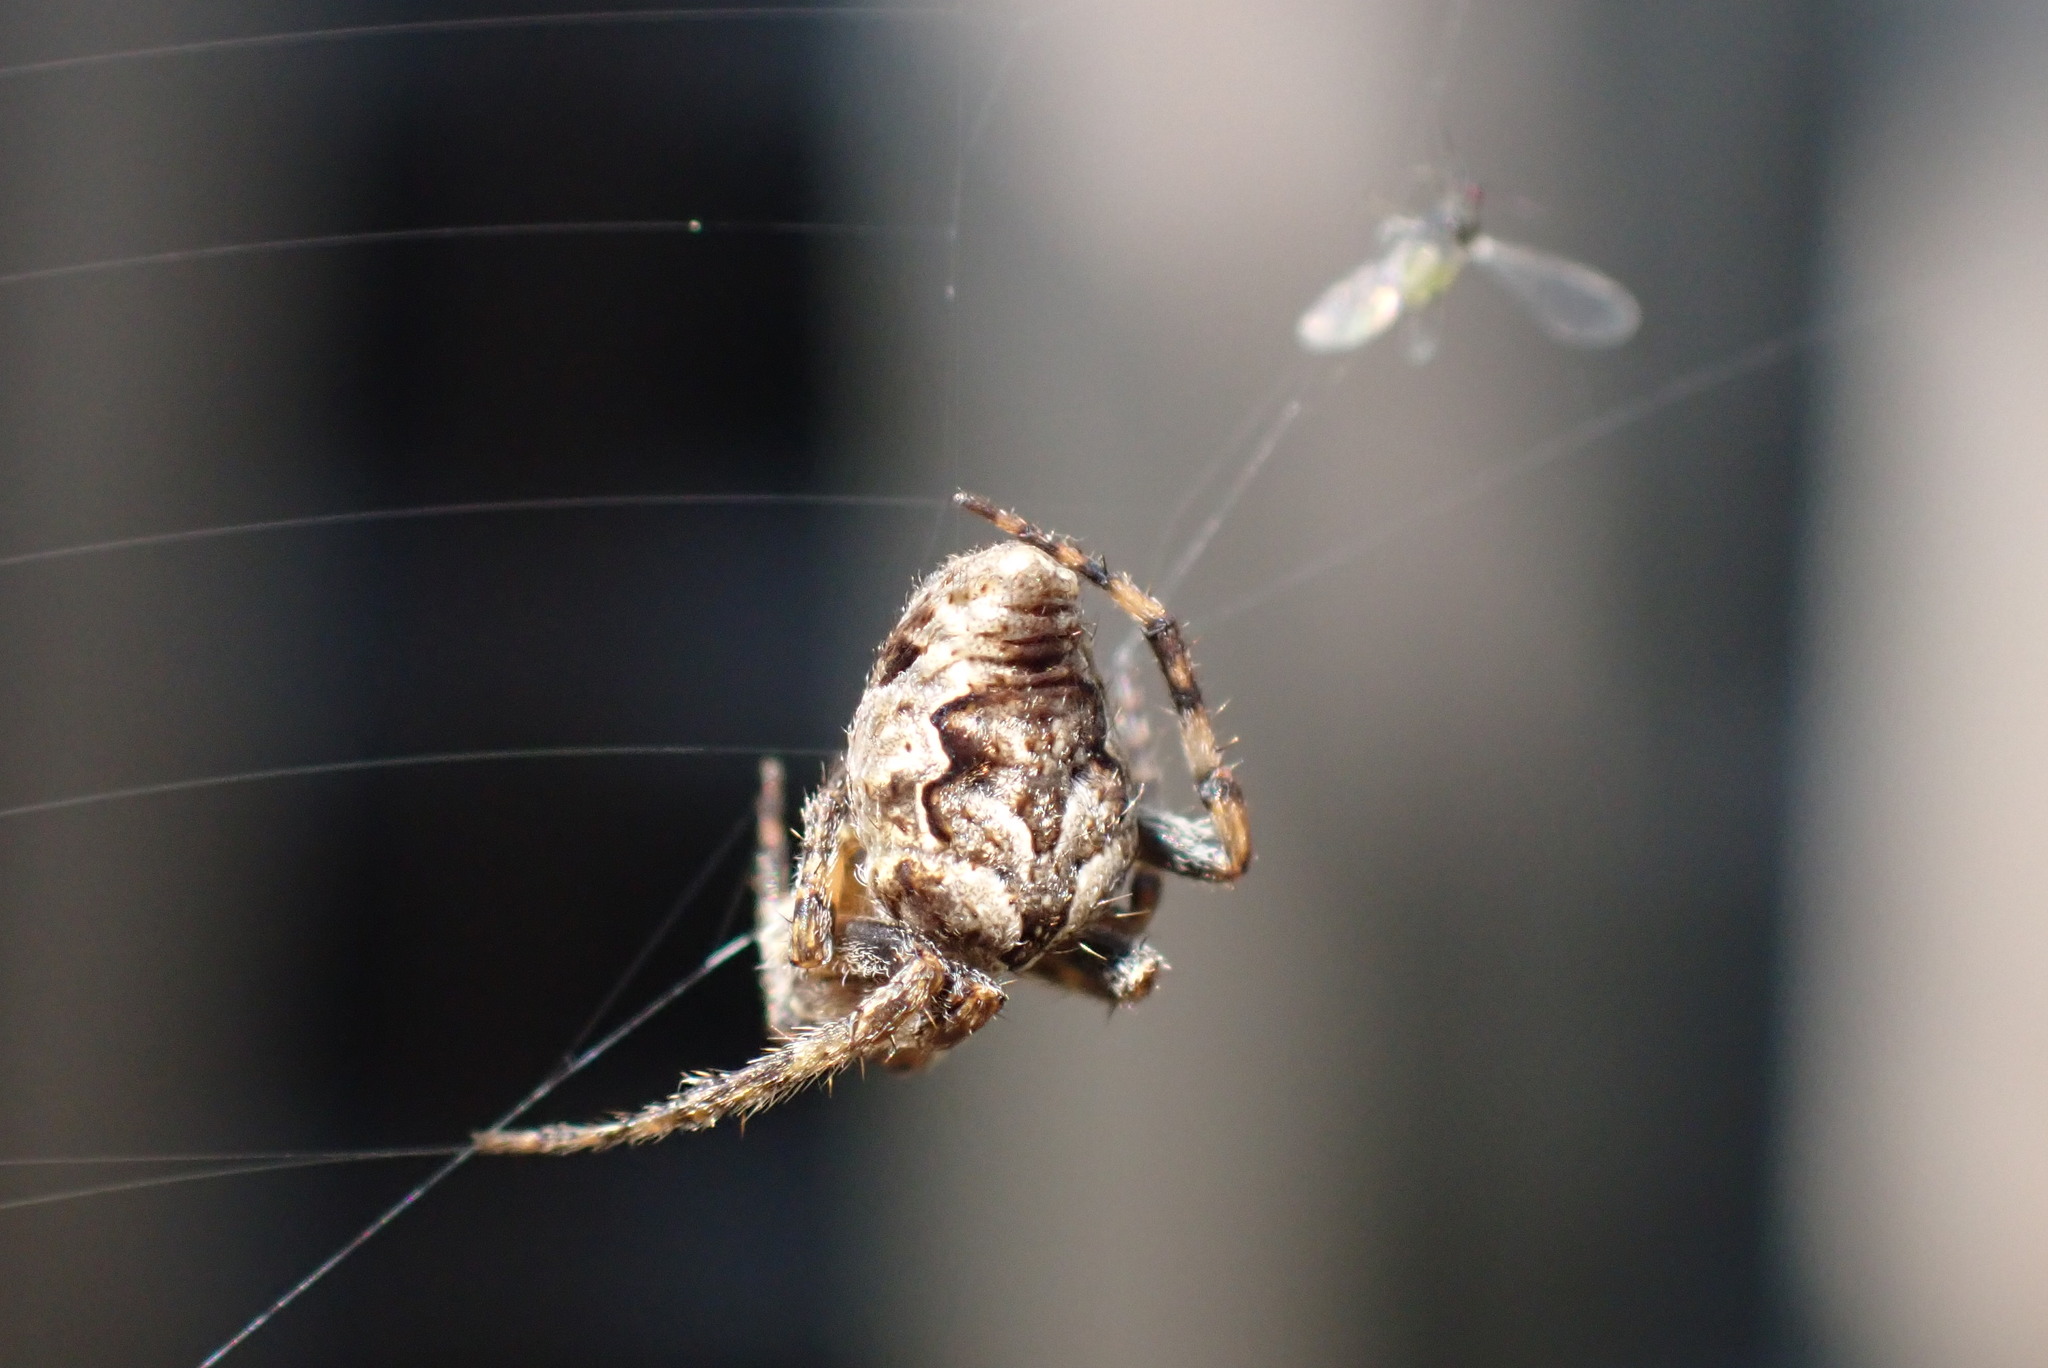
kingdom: Animalia
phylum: Arthropoda
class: Arachnida
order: Araneae
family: Araneidae
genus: Eustala
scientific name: Eustala anastera
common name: Orb weavers
